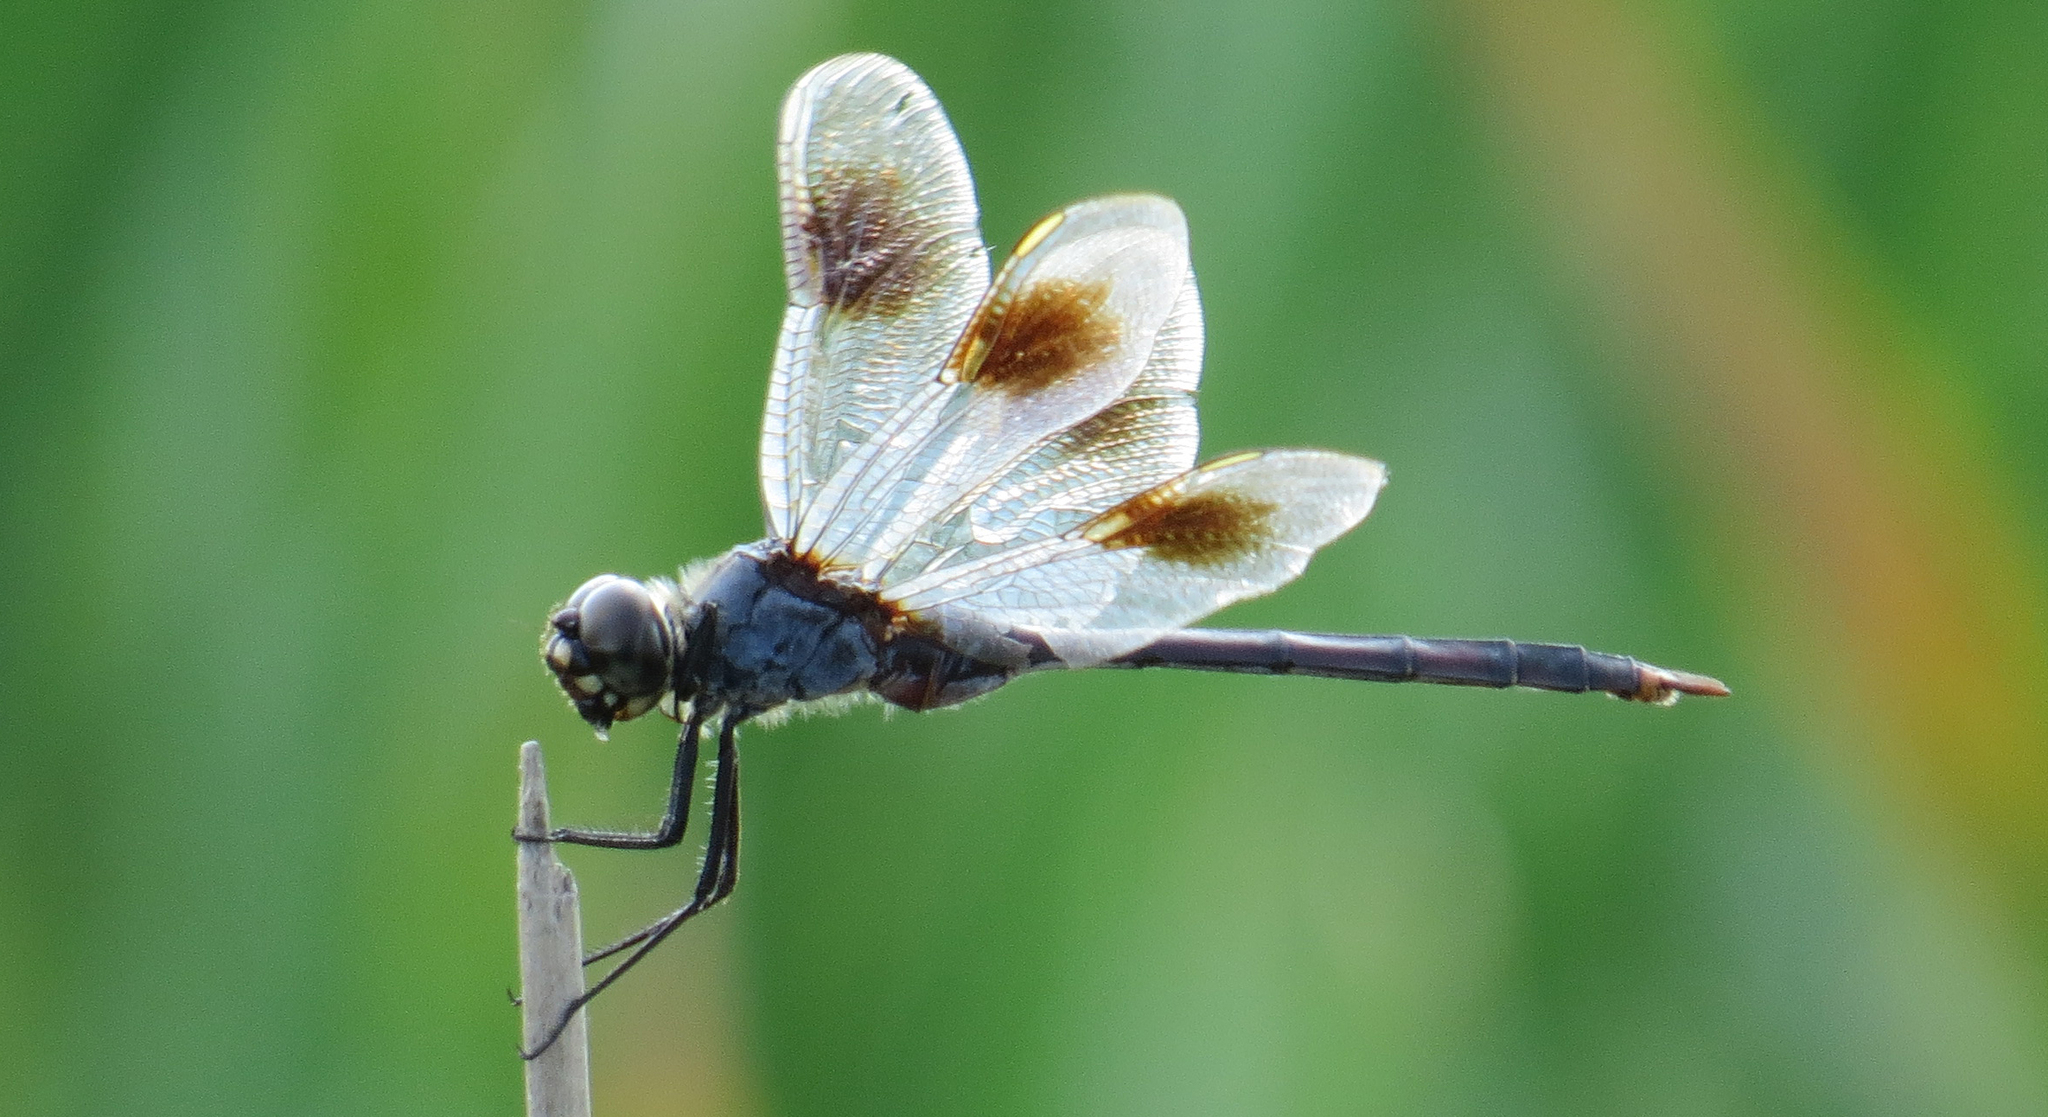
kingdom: Animalia
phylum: Arthropoda
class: Insecta
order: Odonata
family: Libellulidae
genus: Brachymesia
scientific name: Brachymesia gravida
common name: Four-spotted pennant
